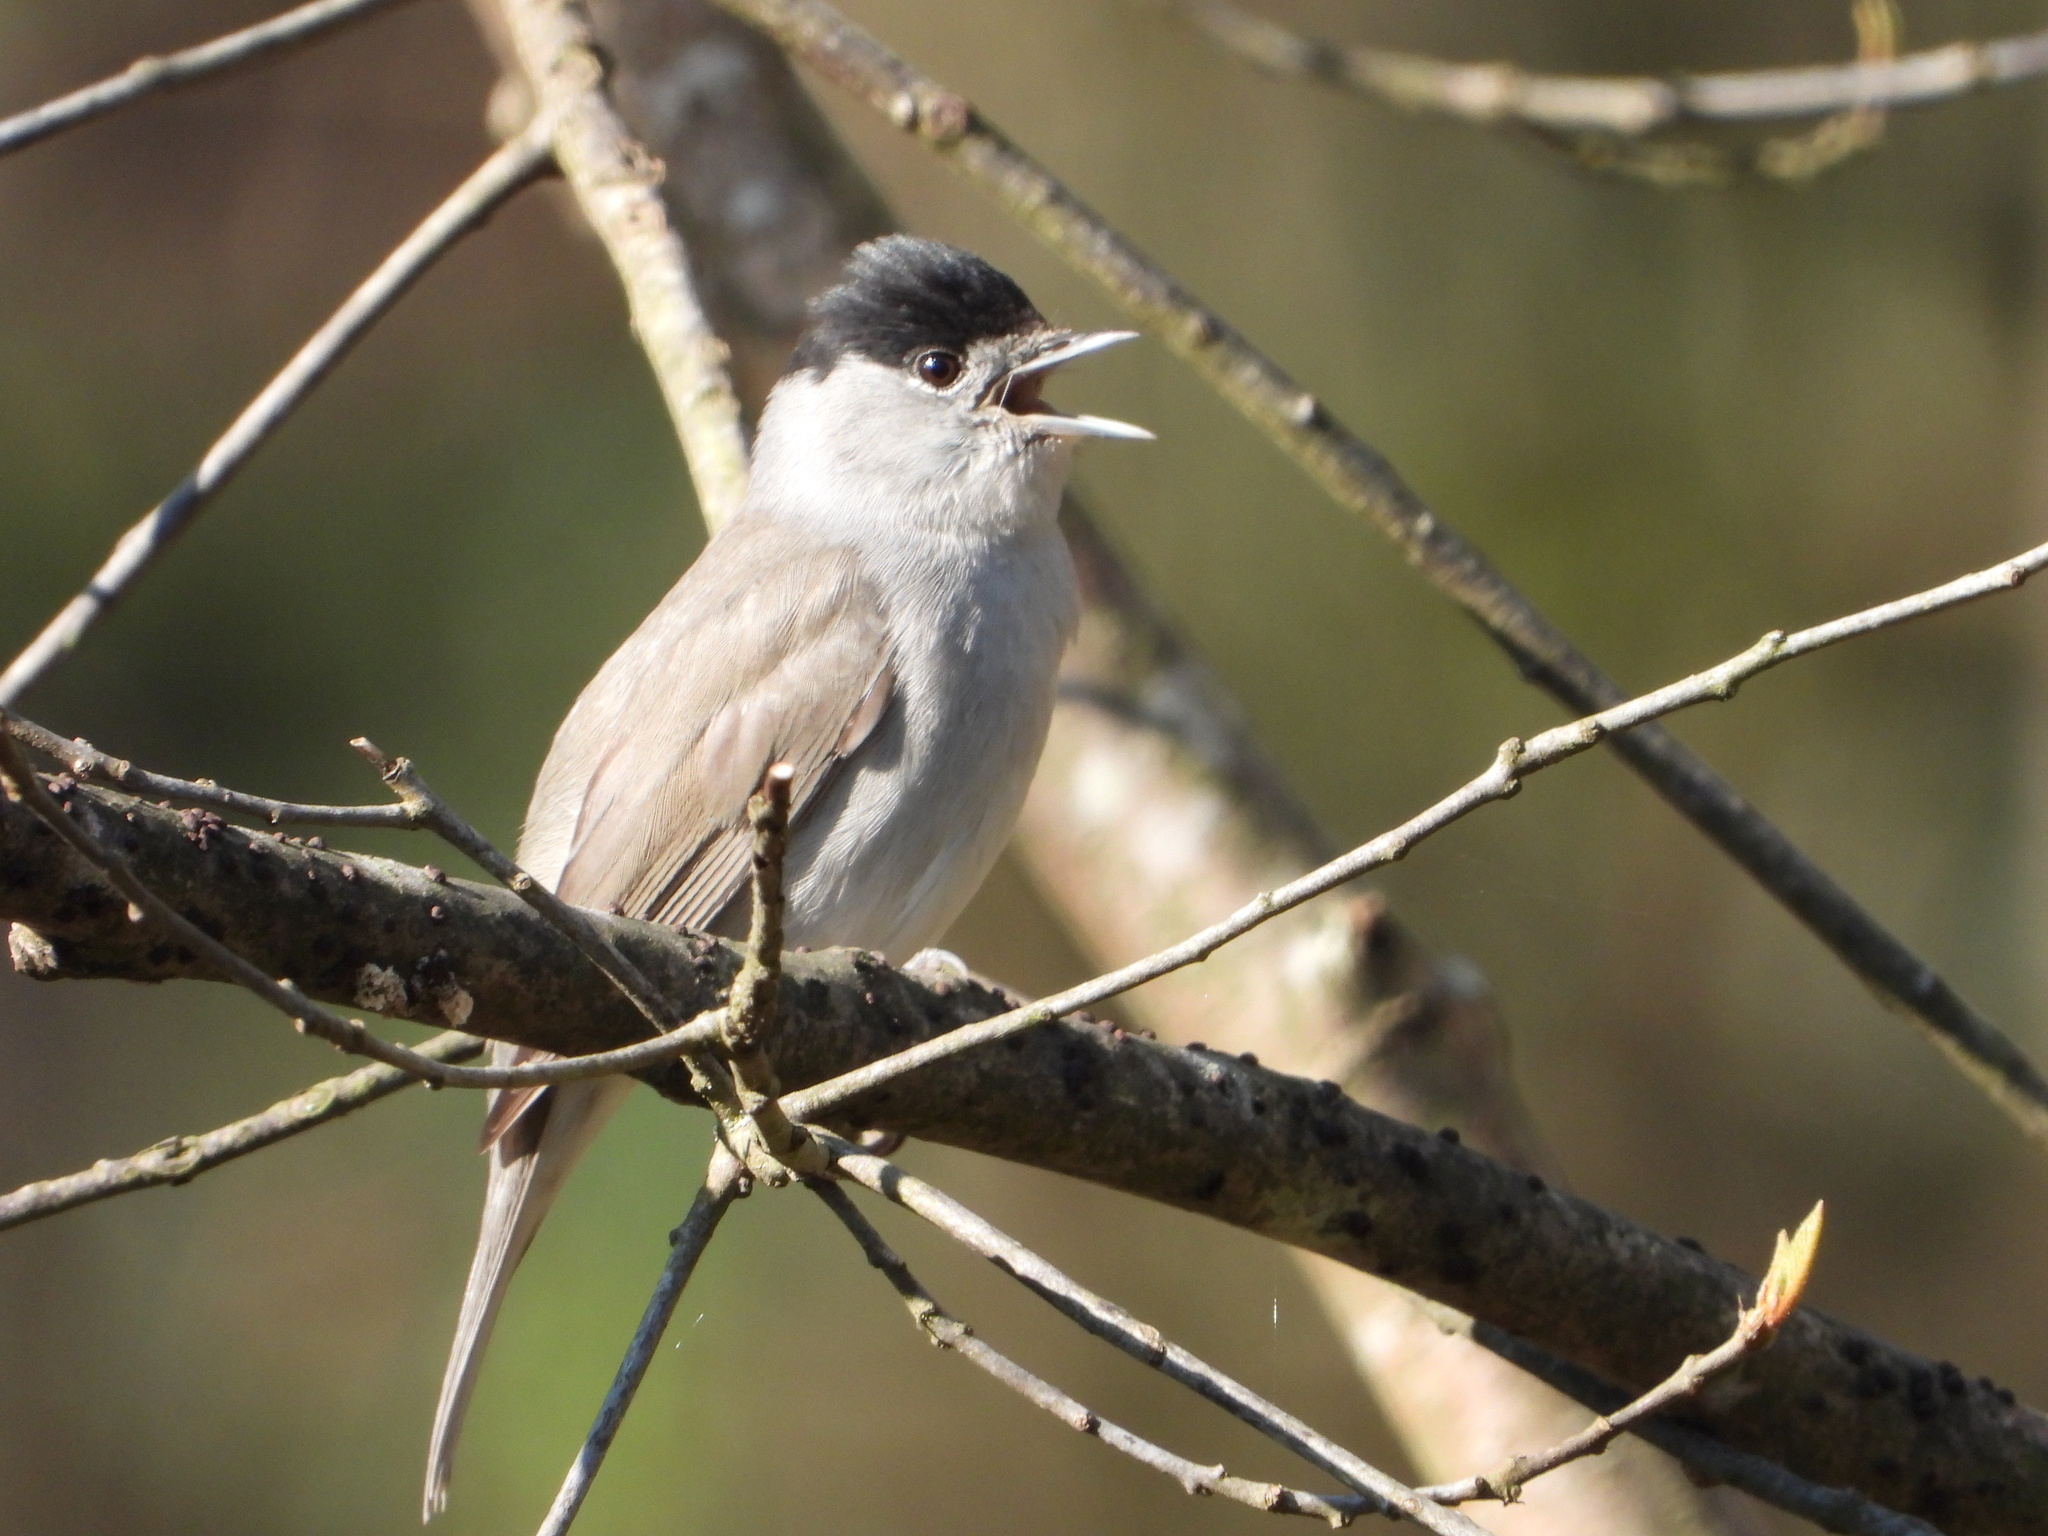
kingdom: Animalia
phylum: Chordata
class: Aves
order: Passeriformes
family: Sylviidae
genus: Sylvia
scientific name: Sylvia atricapilla
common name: Eurasian blackcap
